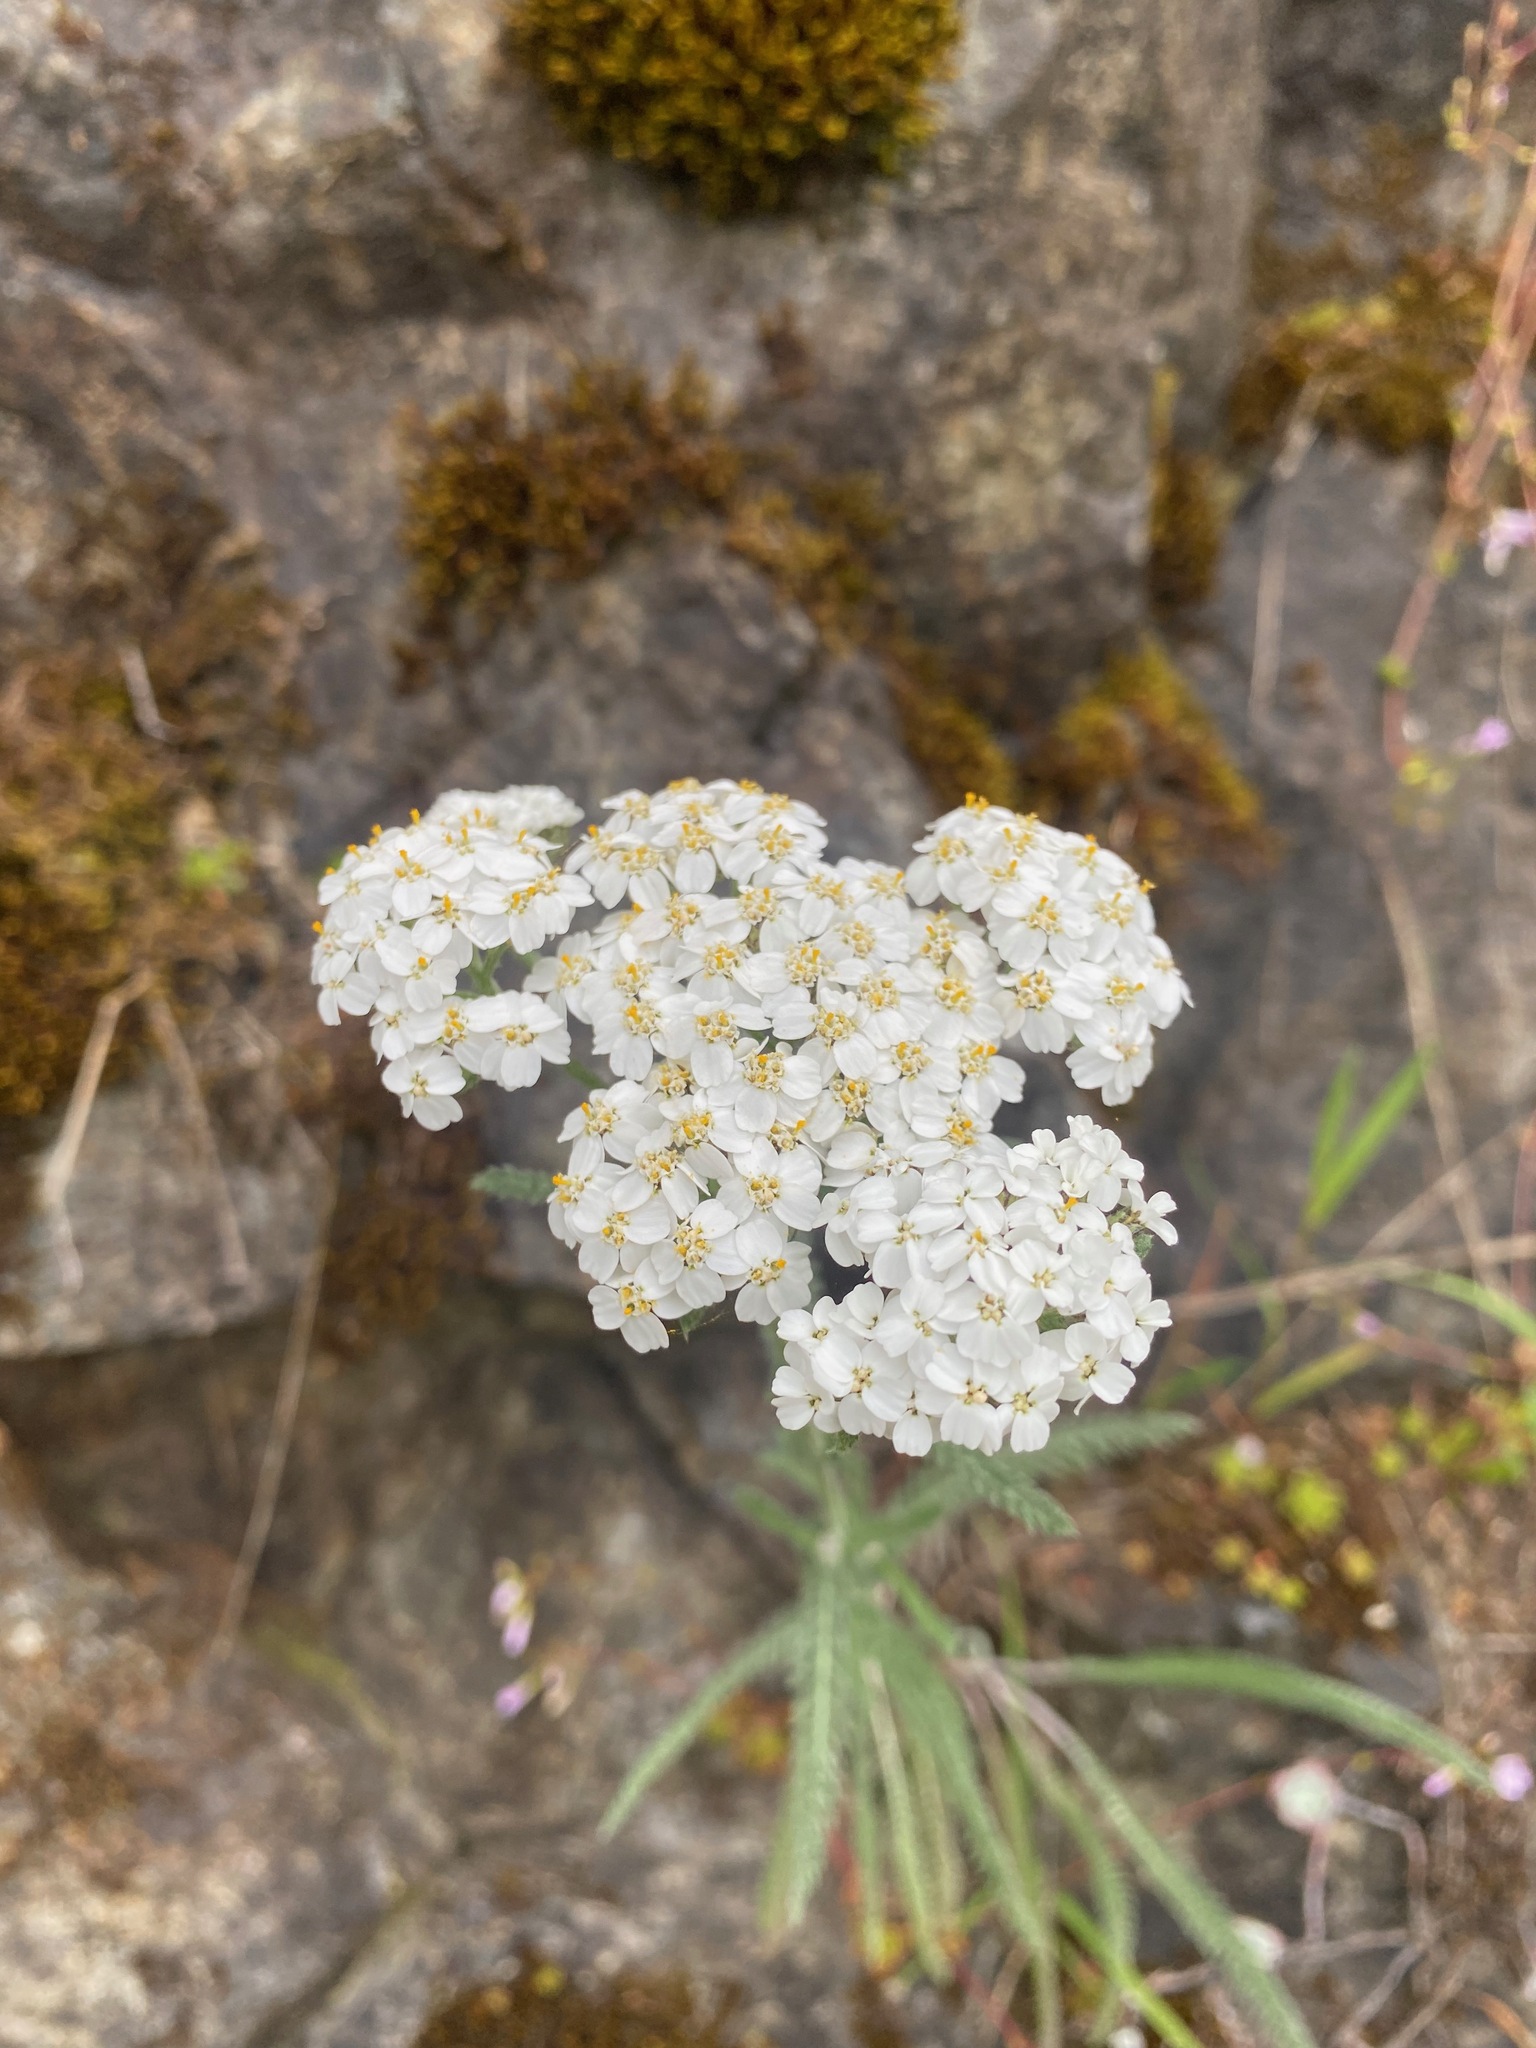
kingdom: Plantae
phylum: Tracheophyta
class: Magnoliopsida
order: Asterales
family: Asteraceae
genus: Achillea
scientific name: Achillea millefolium
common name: Yarrow
